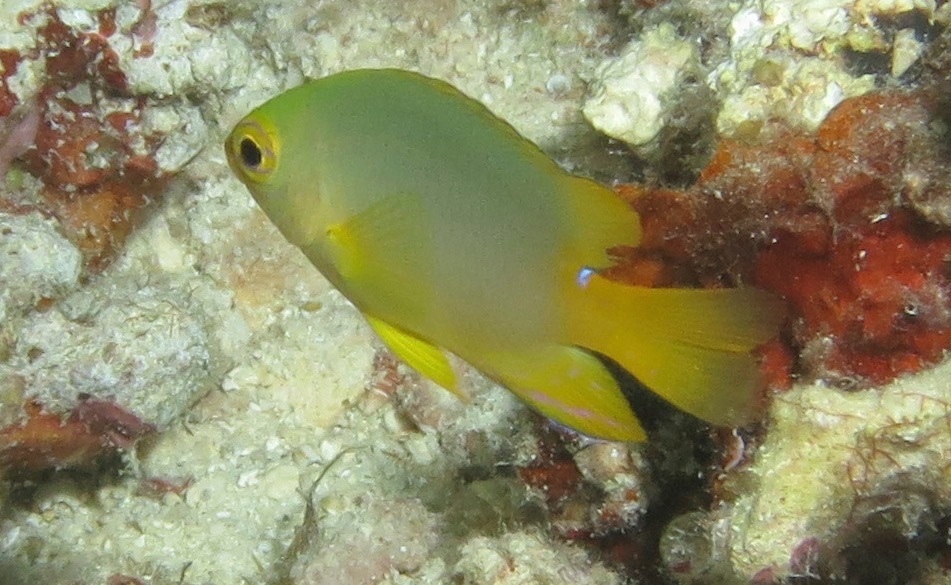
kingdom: Animalia
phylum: Chordata
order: Perciformes
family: Pomacentridae
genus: Pomacentrus
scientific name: Pomacentrus maafu
